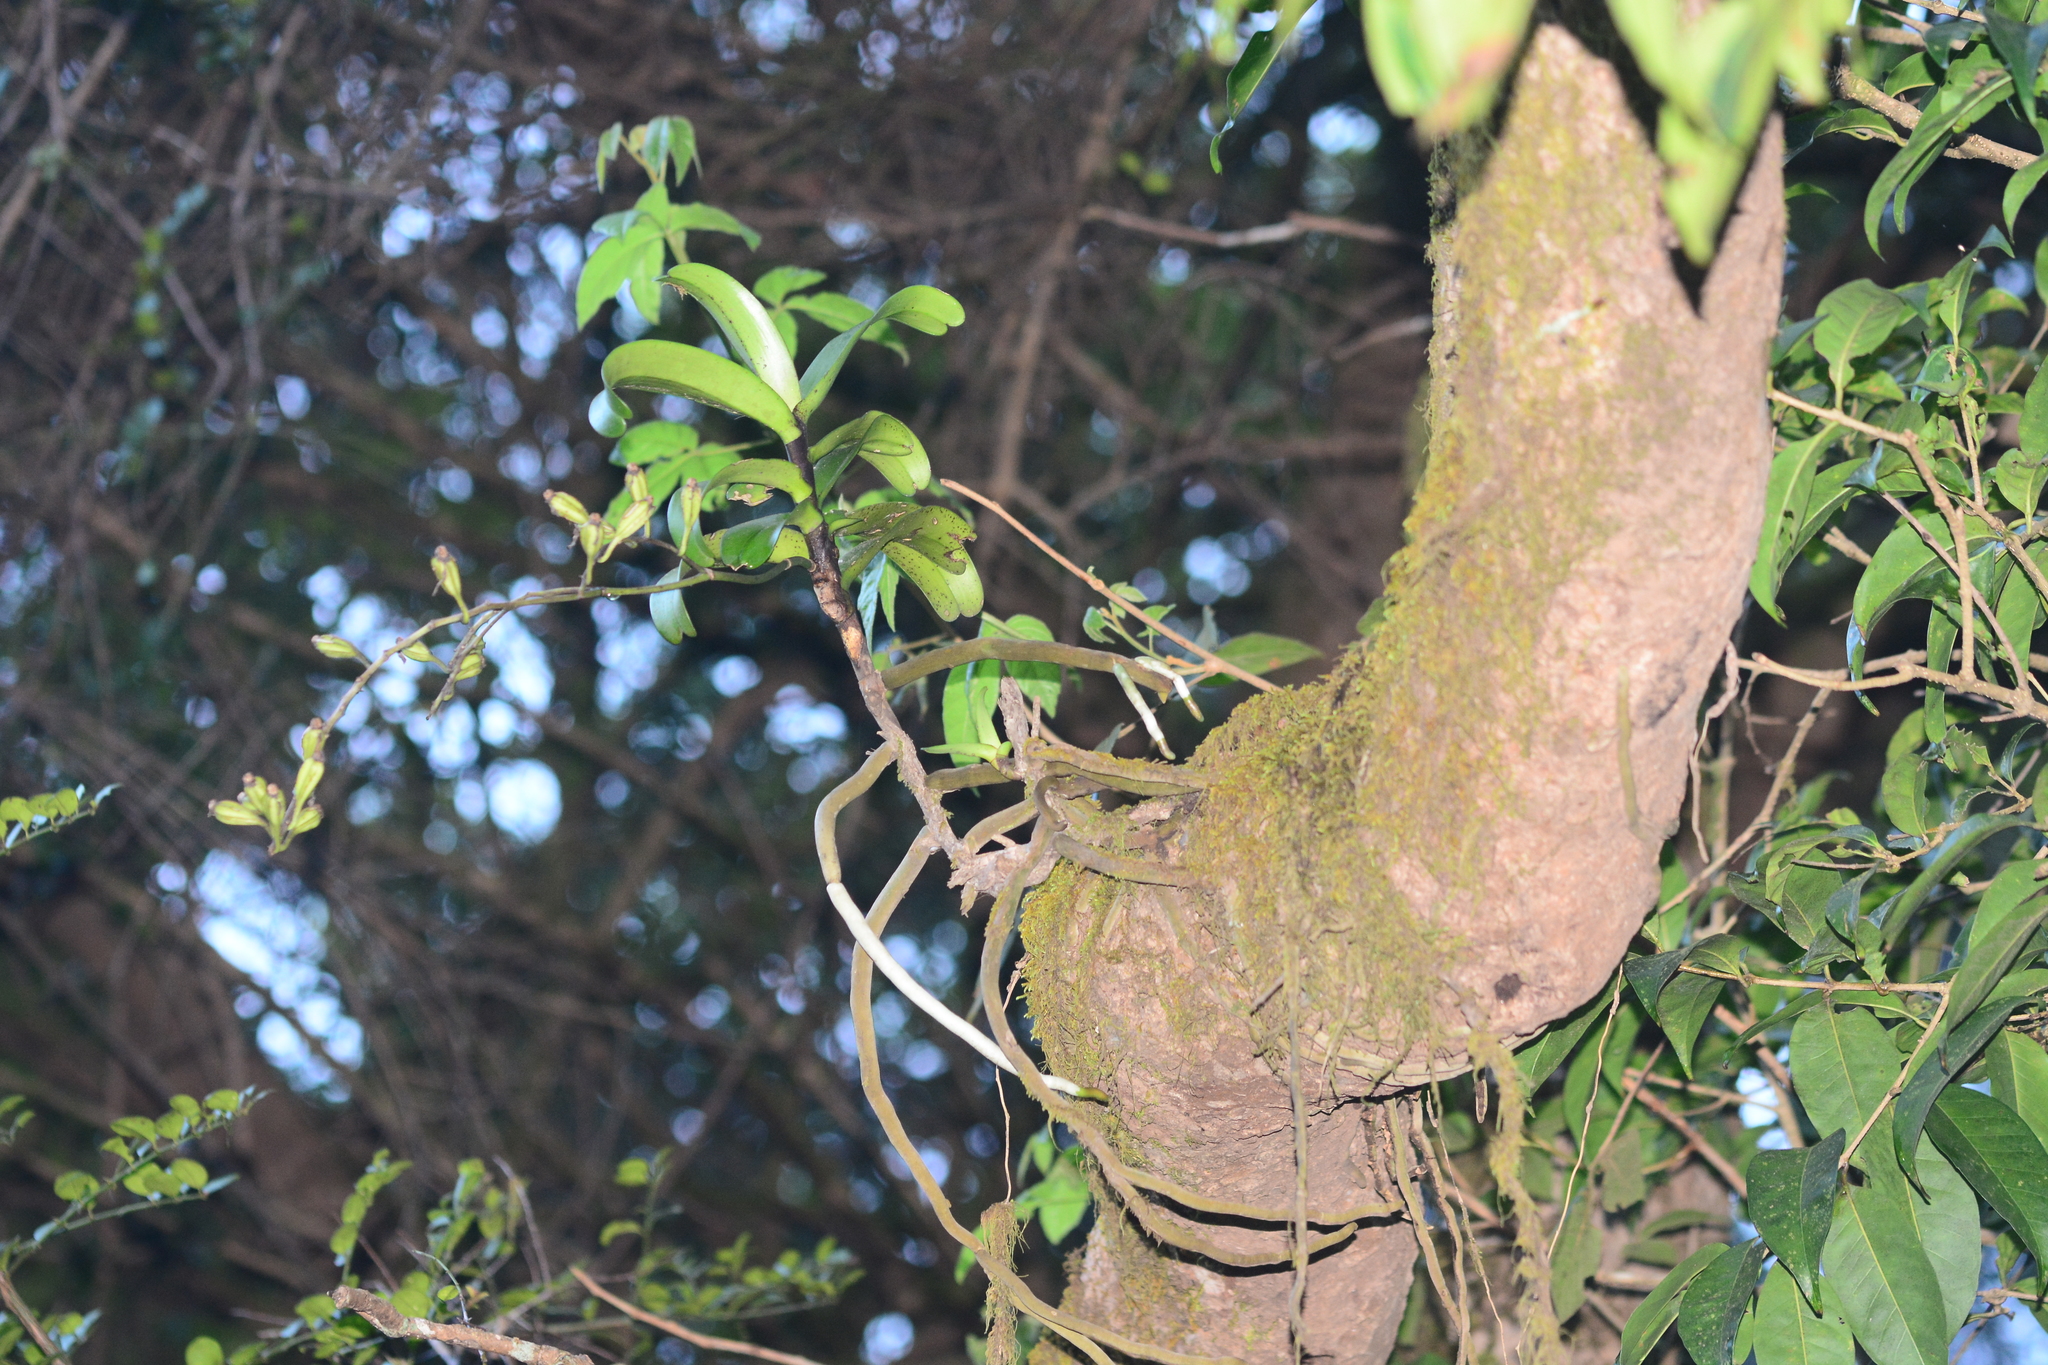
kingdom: Plantae
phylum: Tracheophyta
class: Liliopsida
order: Asparagales
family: Orchidaceae
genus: Aerides
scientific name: Aerides crispa
